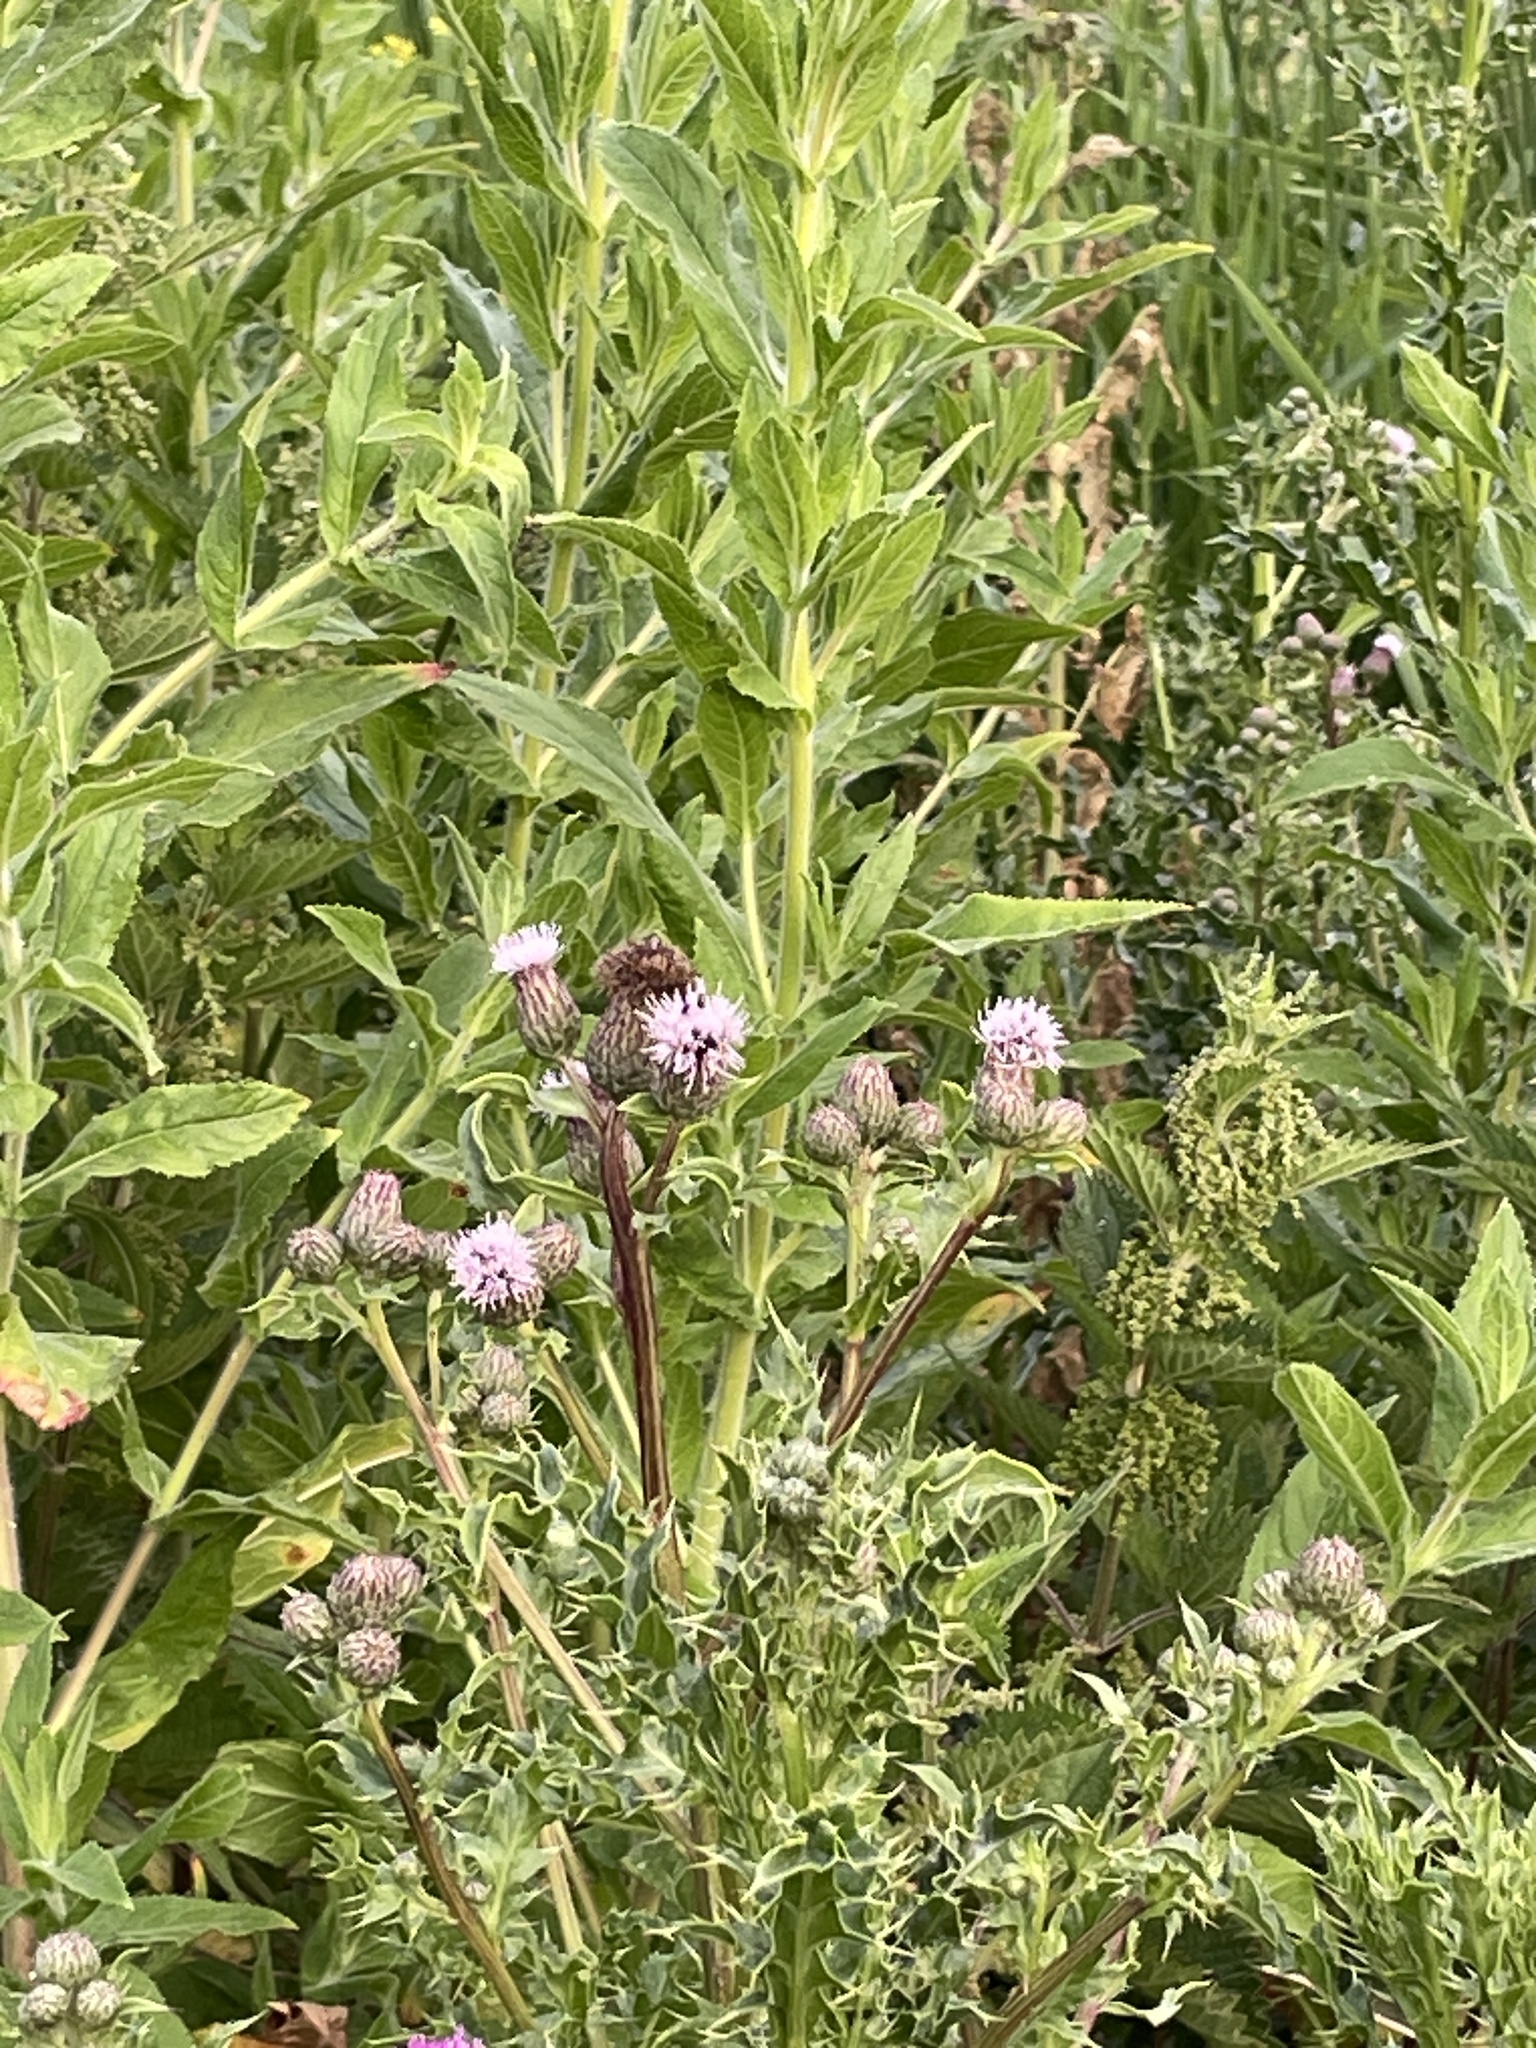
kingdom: Plantae
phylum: Tracheophyta
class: Magnoliopsida
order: Asterales
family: Asteraceae
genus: Cirsium
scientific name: Cirsium arvense
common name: Creeping thistle
